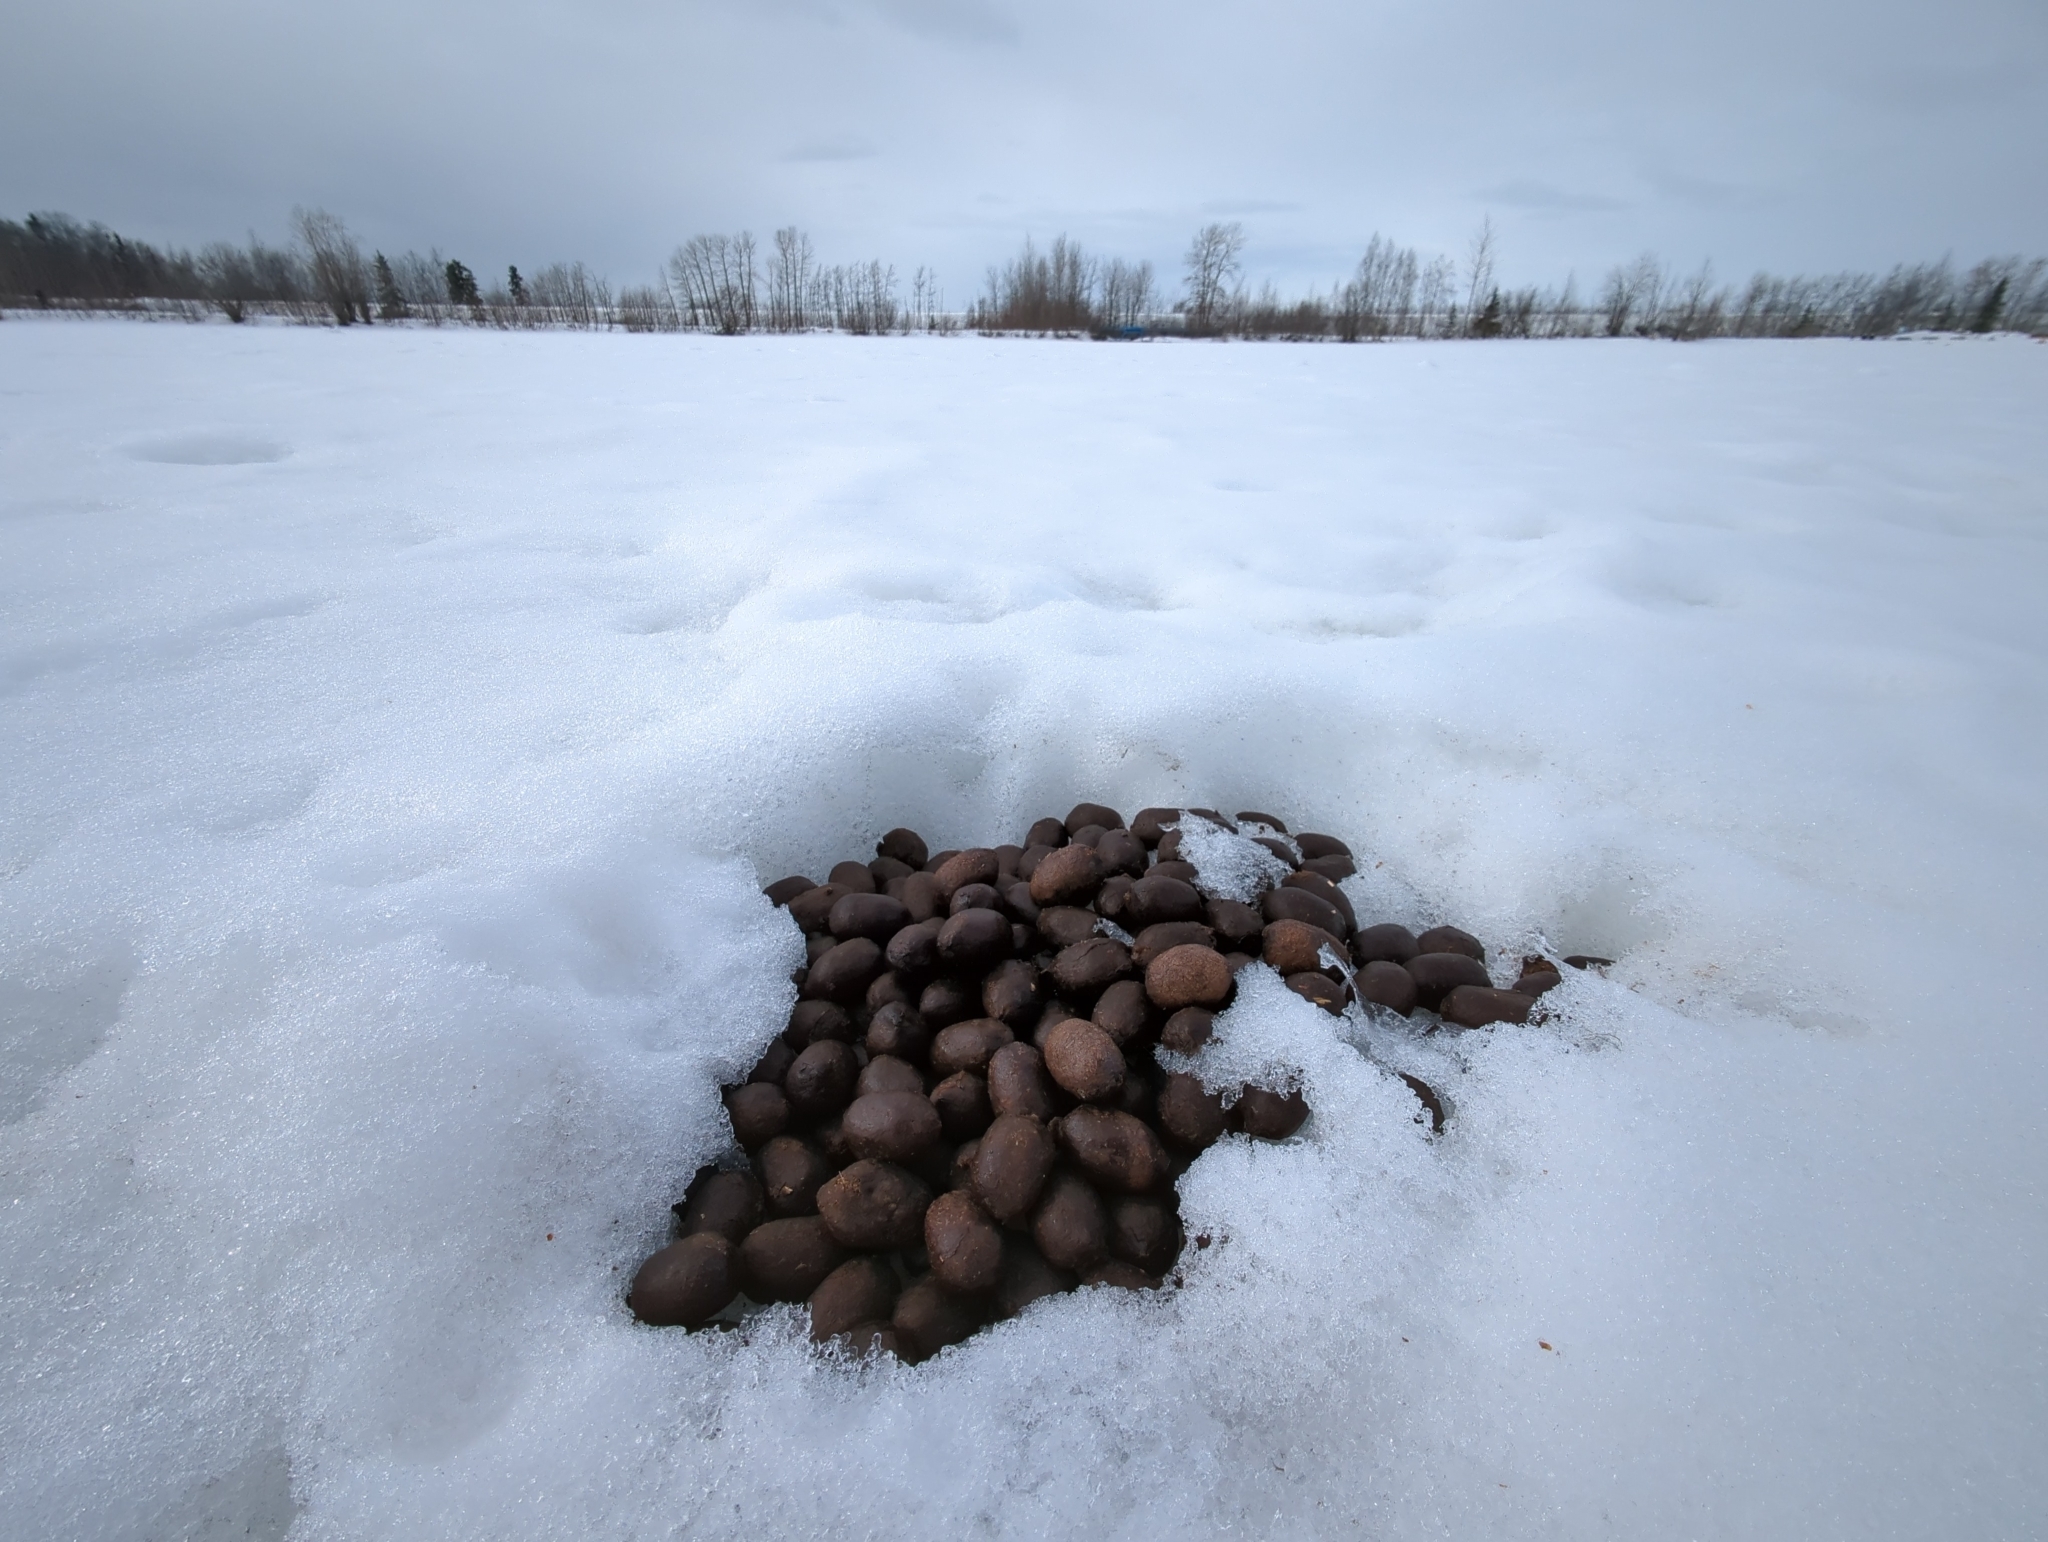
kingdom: Animalia
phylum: Chordata
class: Mammalia
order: Artiodactyla
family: Cervidae
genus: Alces
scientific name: Alces alces
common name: Moose
